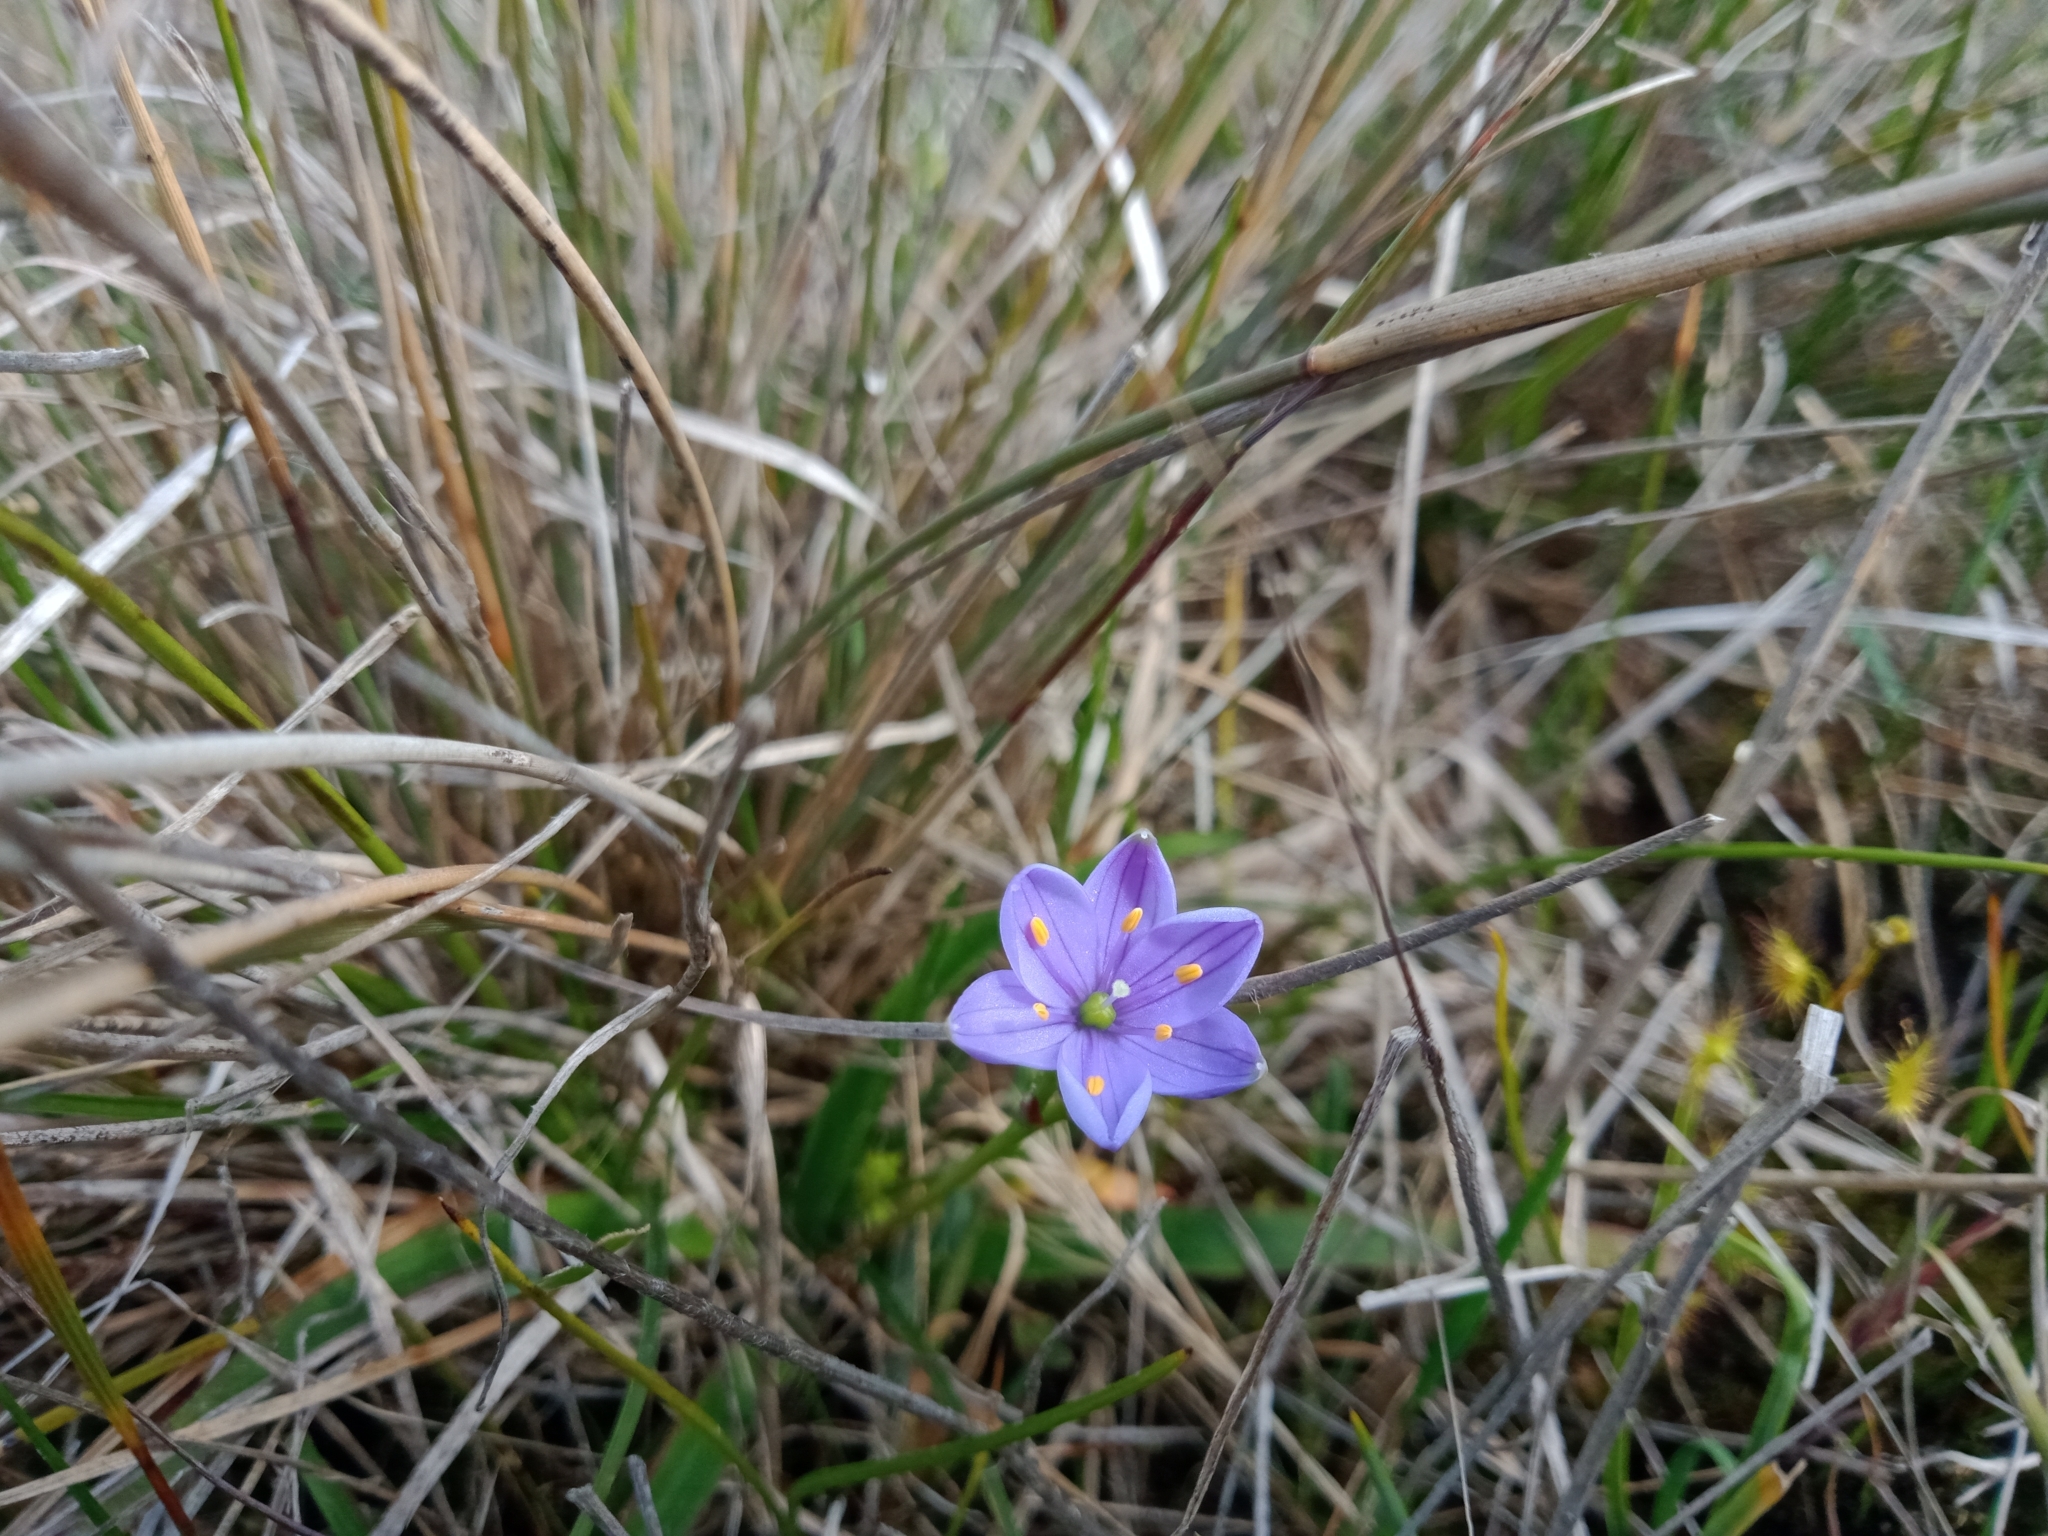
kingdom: Plantae
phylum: Tracheophyta
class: Liliopsida
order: Asparagales
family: Asphodelaceae
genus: Chamaescilla
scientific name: Chamaescilla corymbosa
